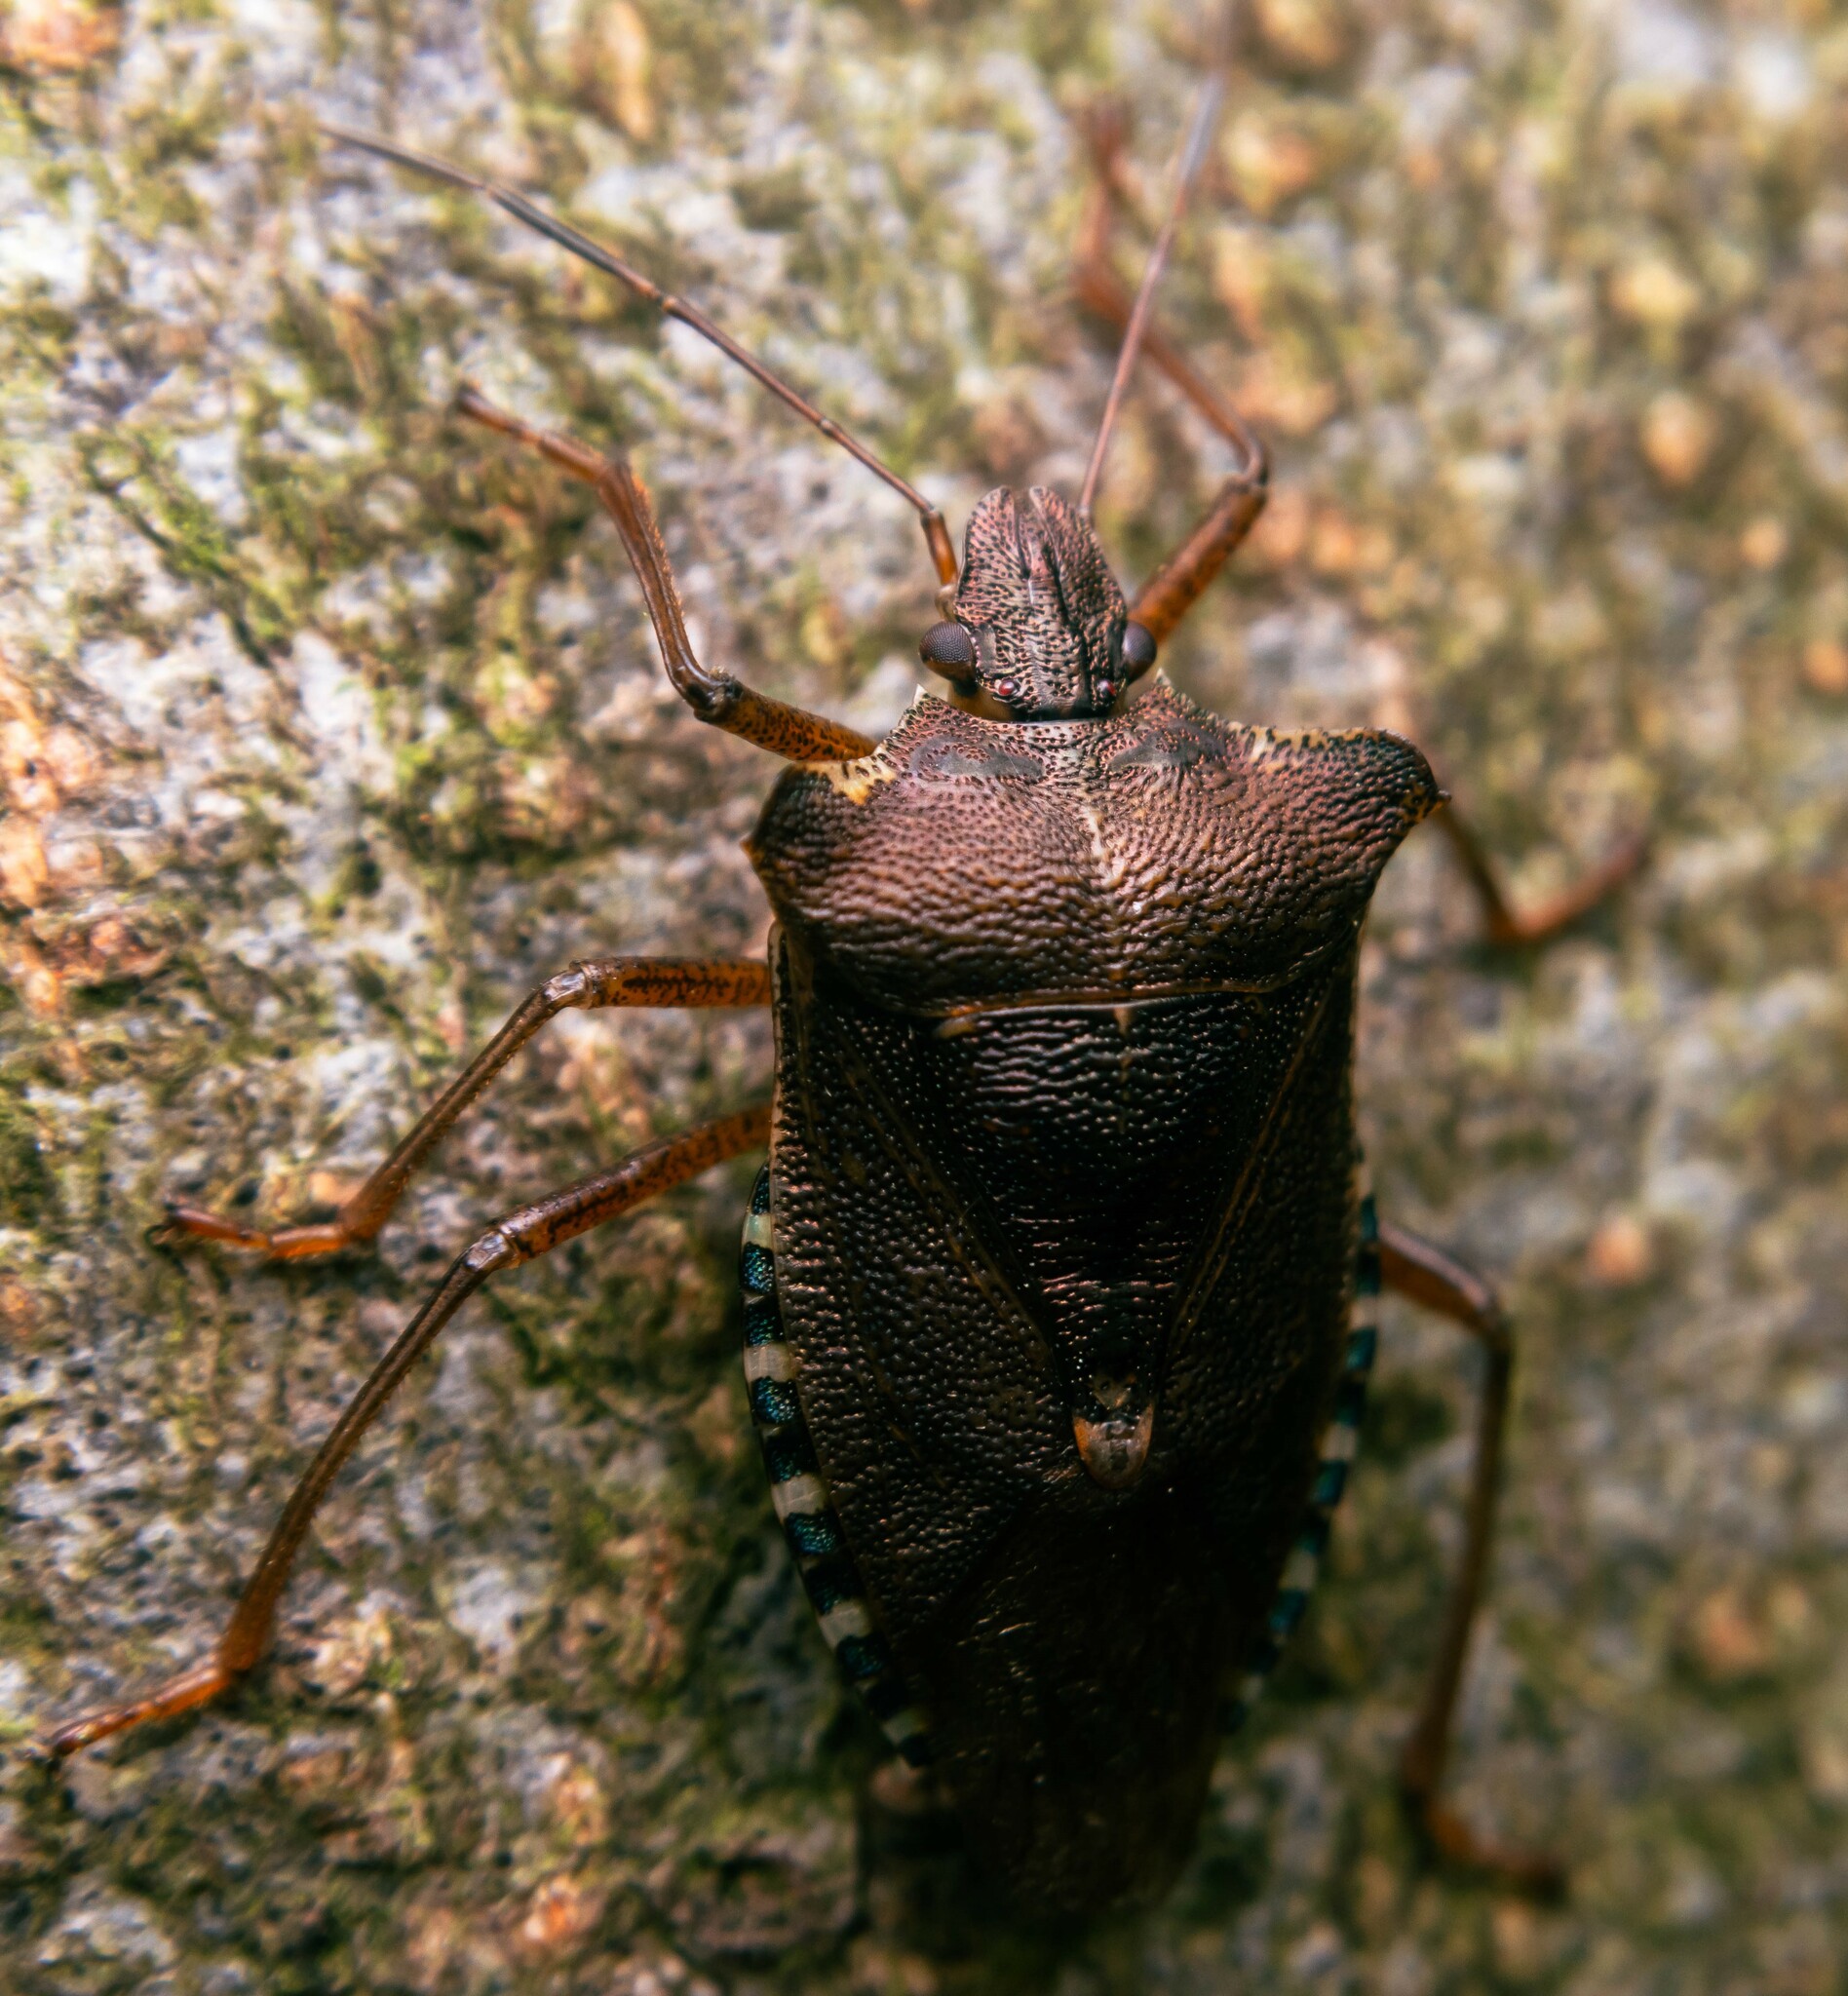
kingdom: Animalia
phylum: Arthropoda
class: Insecta
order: Hemiptera
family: Pentatomidae
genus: Pentatoma
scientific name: Pentatoma rufipes
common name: Forest bug
